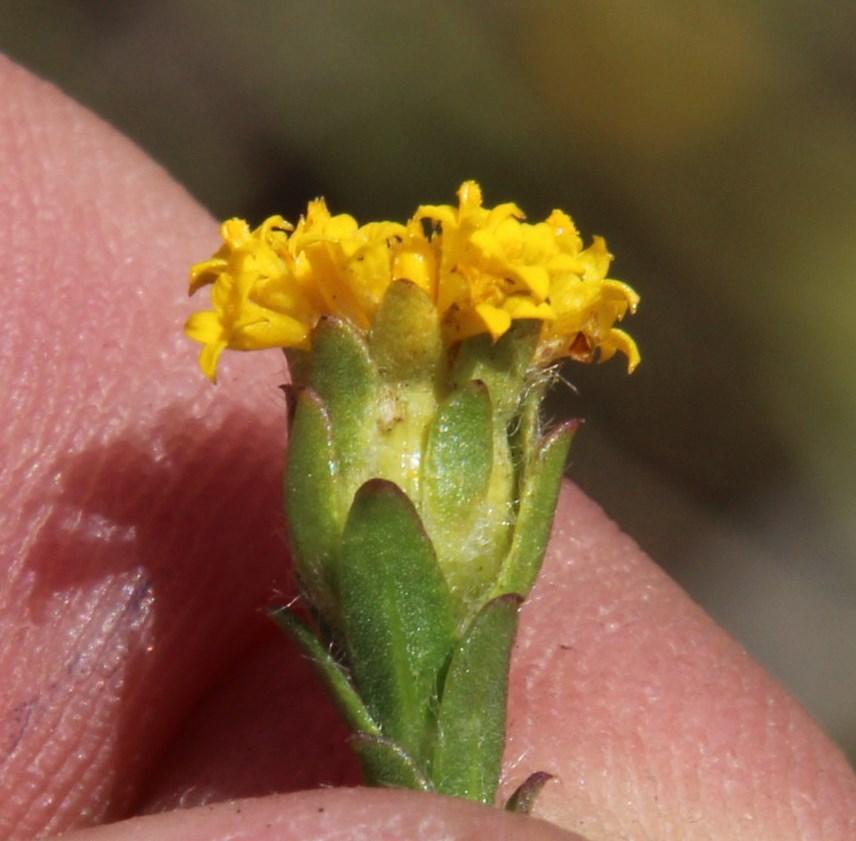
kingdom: Plantae
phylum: Tracheophyta
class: Magnoliopsida
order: Asterales
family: Asteraceae
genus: Athanasia
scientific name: Athanasia capitata
